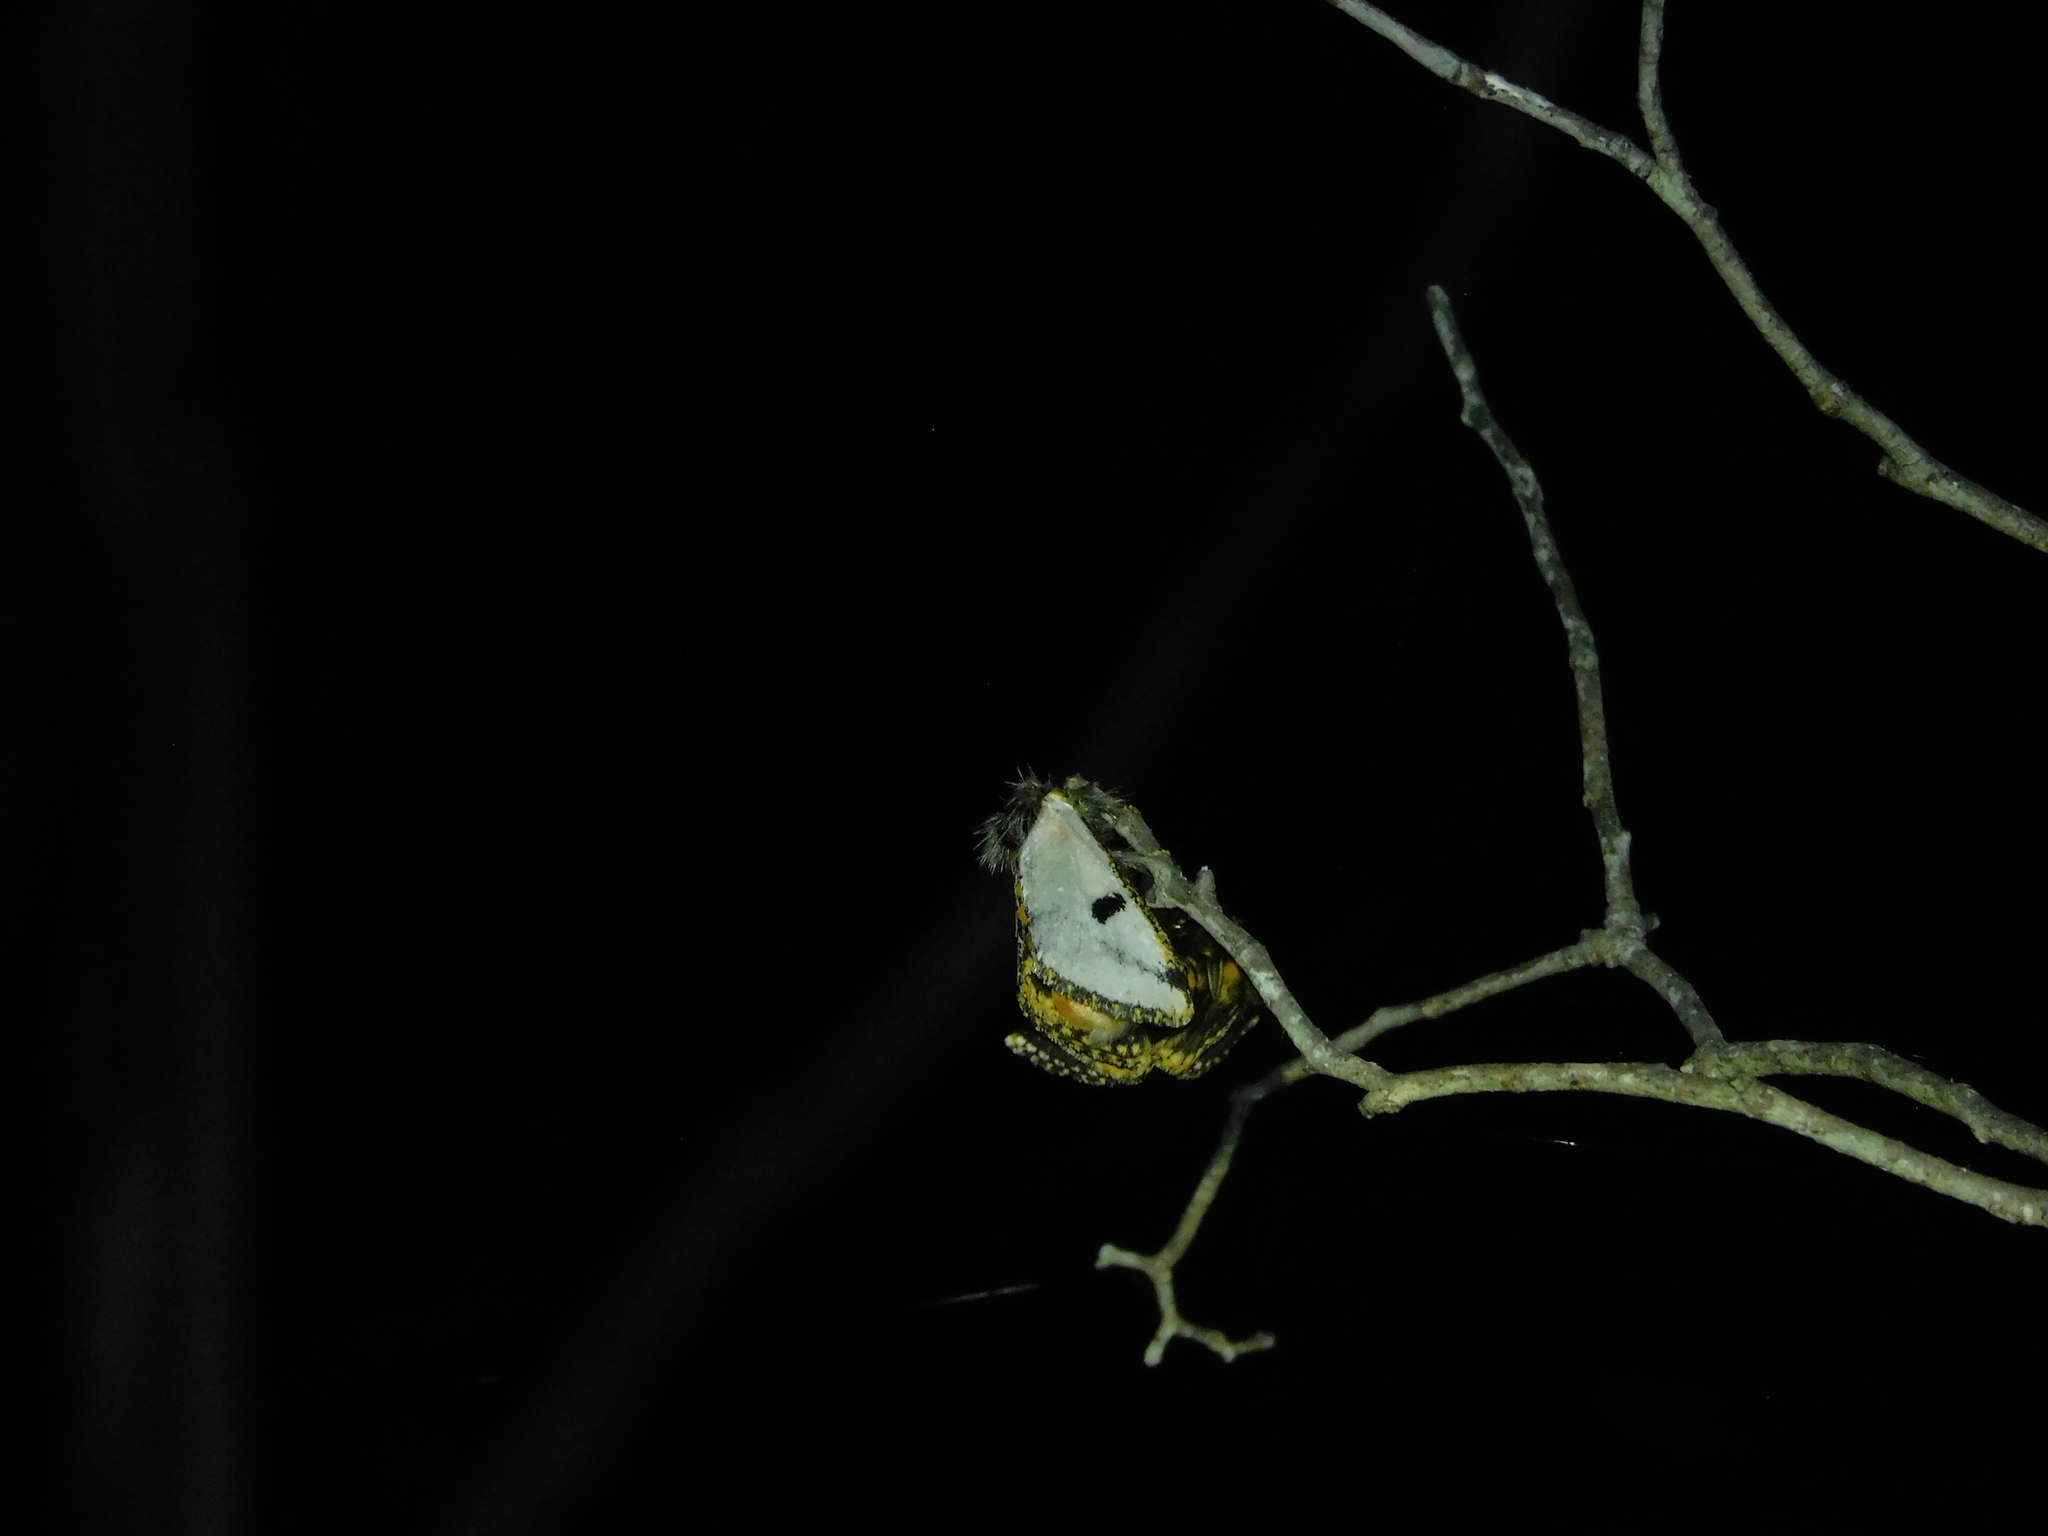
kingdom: Animalia
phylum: Arthropoda
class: Insecta
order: Lepidoptera
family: Notodontidae
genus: Epicoma
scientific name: Epicoma melanospila
